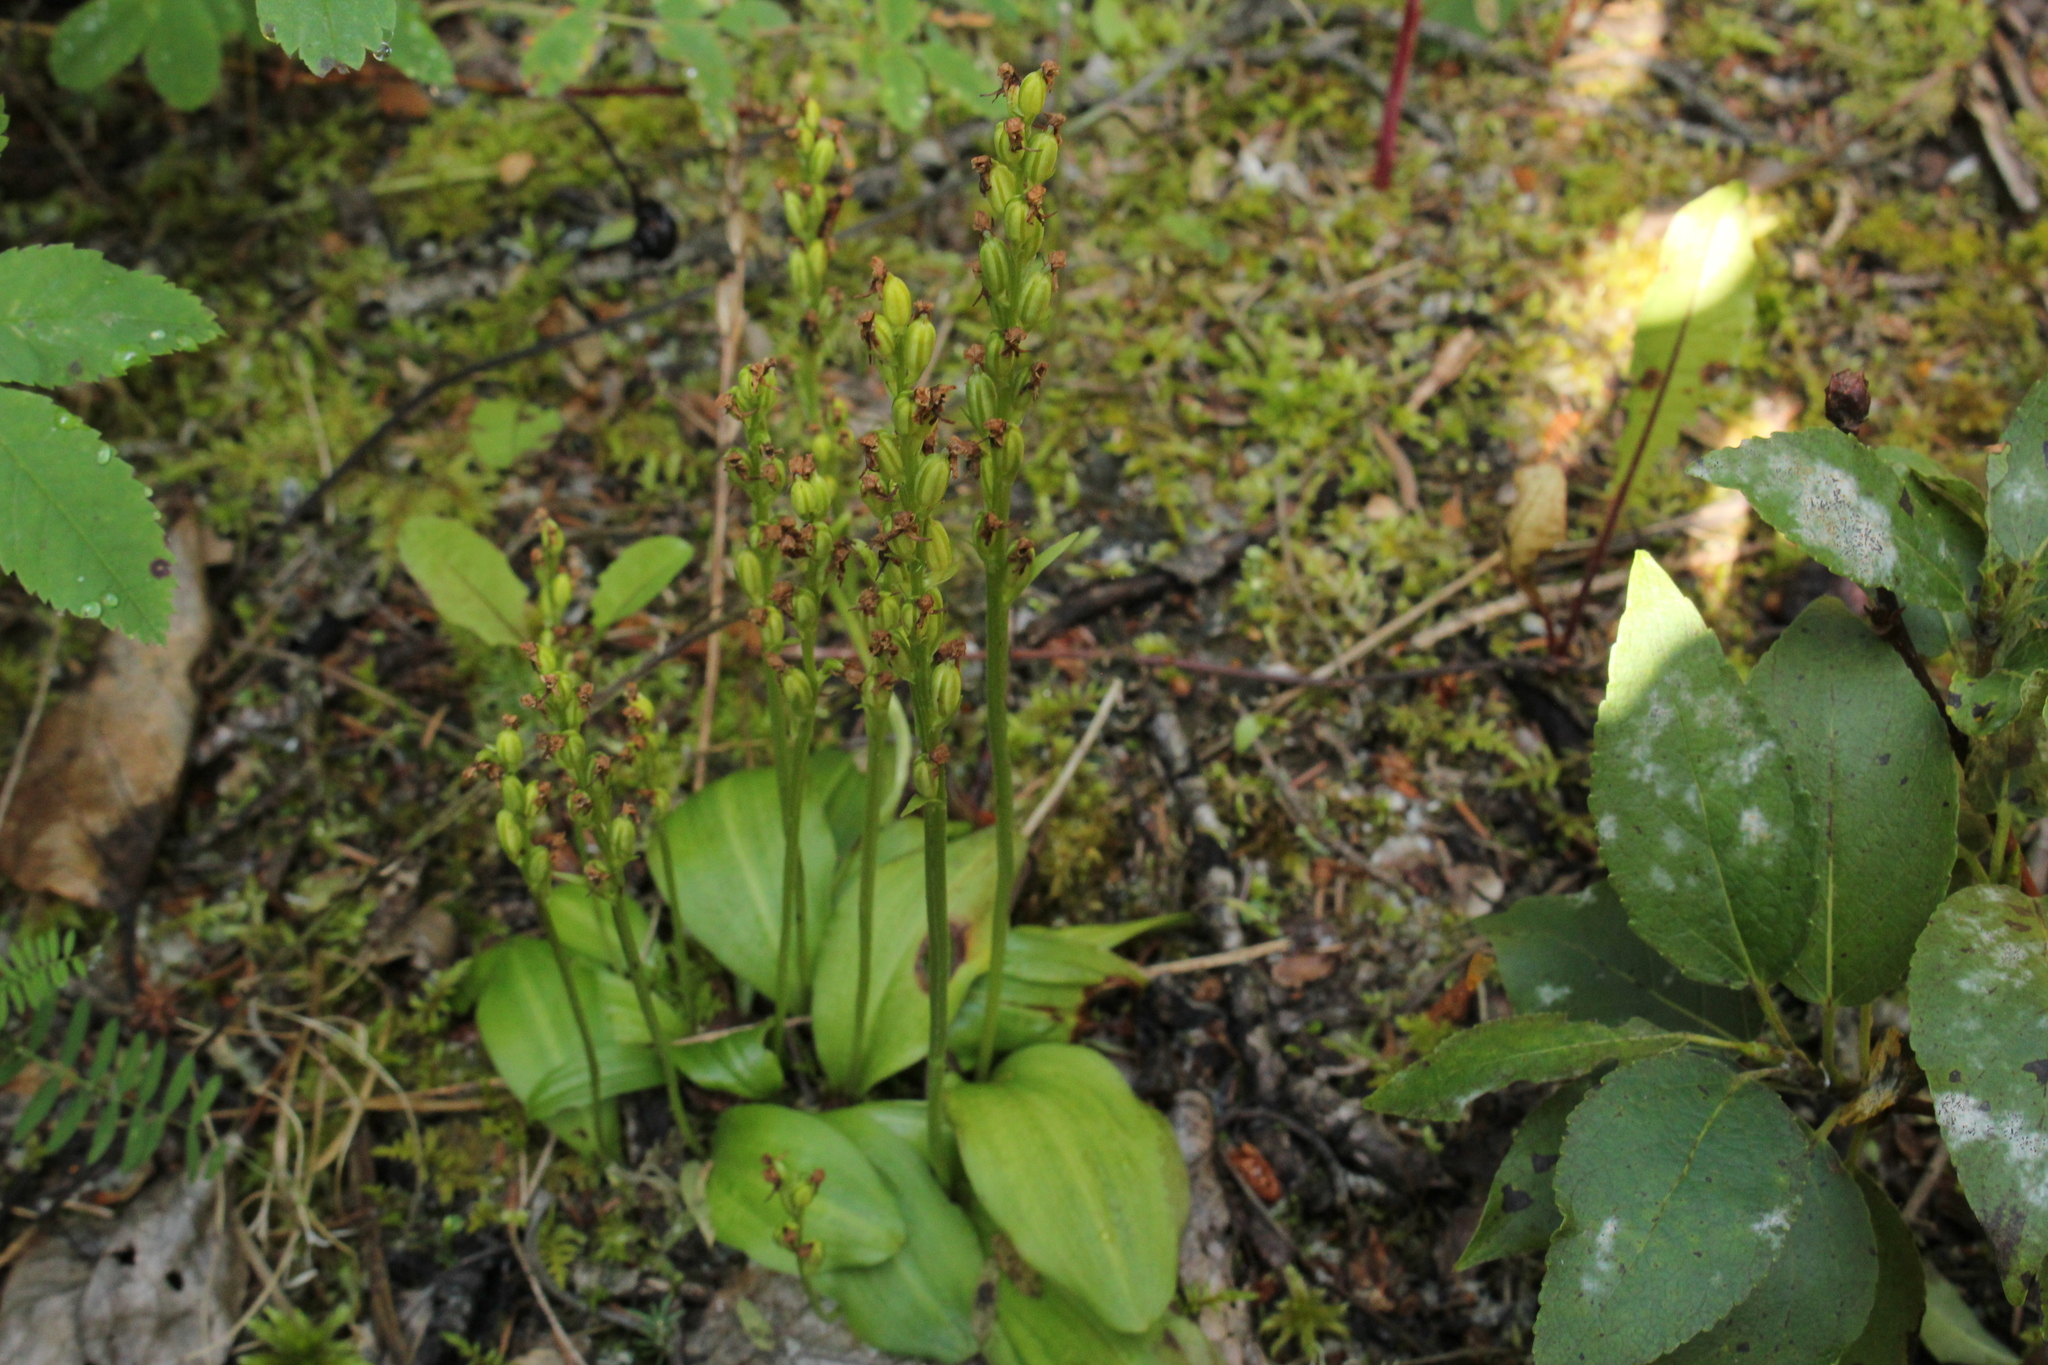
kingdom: Plantae
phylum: Tracheophyta
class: Liliopsida
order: Asparagales
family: Orchidaceae
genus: Platanthera
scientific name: Platanthera obtusata
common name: Blunt bog orchid
